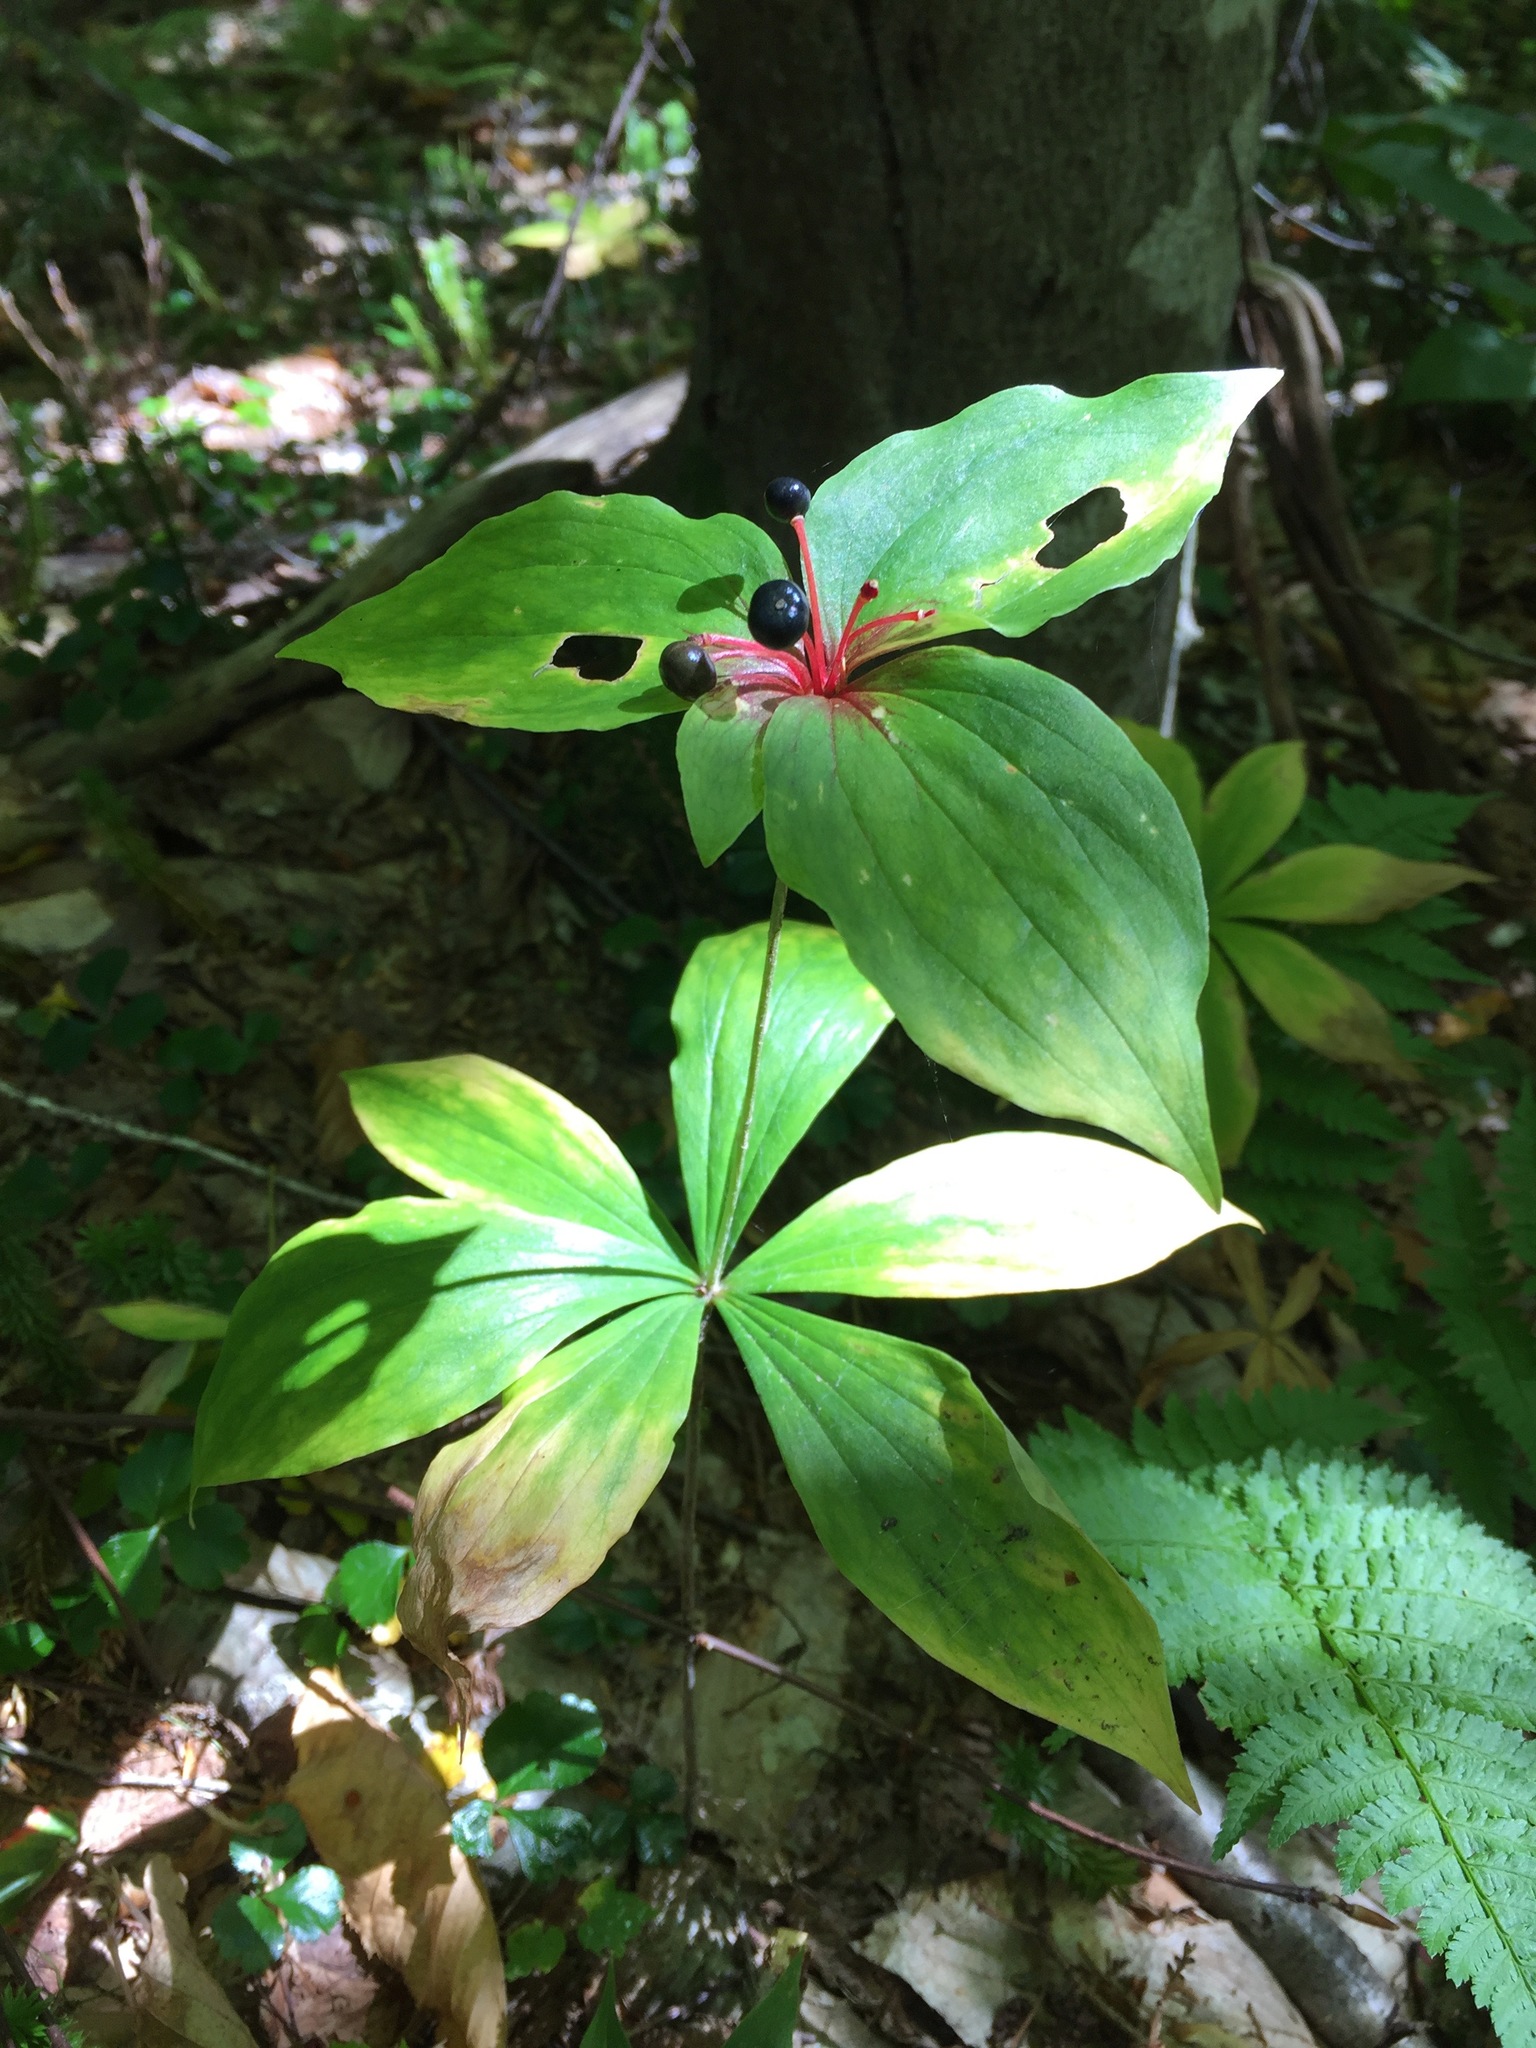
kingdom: Plantae
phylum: Tracheophyta
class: Liliopsida
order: Liliales
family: Liliaceae
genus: Medeola
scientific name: Medeola virginiana
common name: Indian cucumber-root
